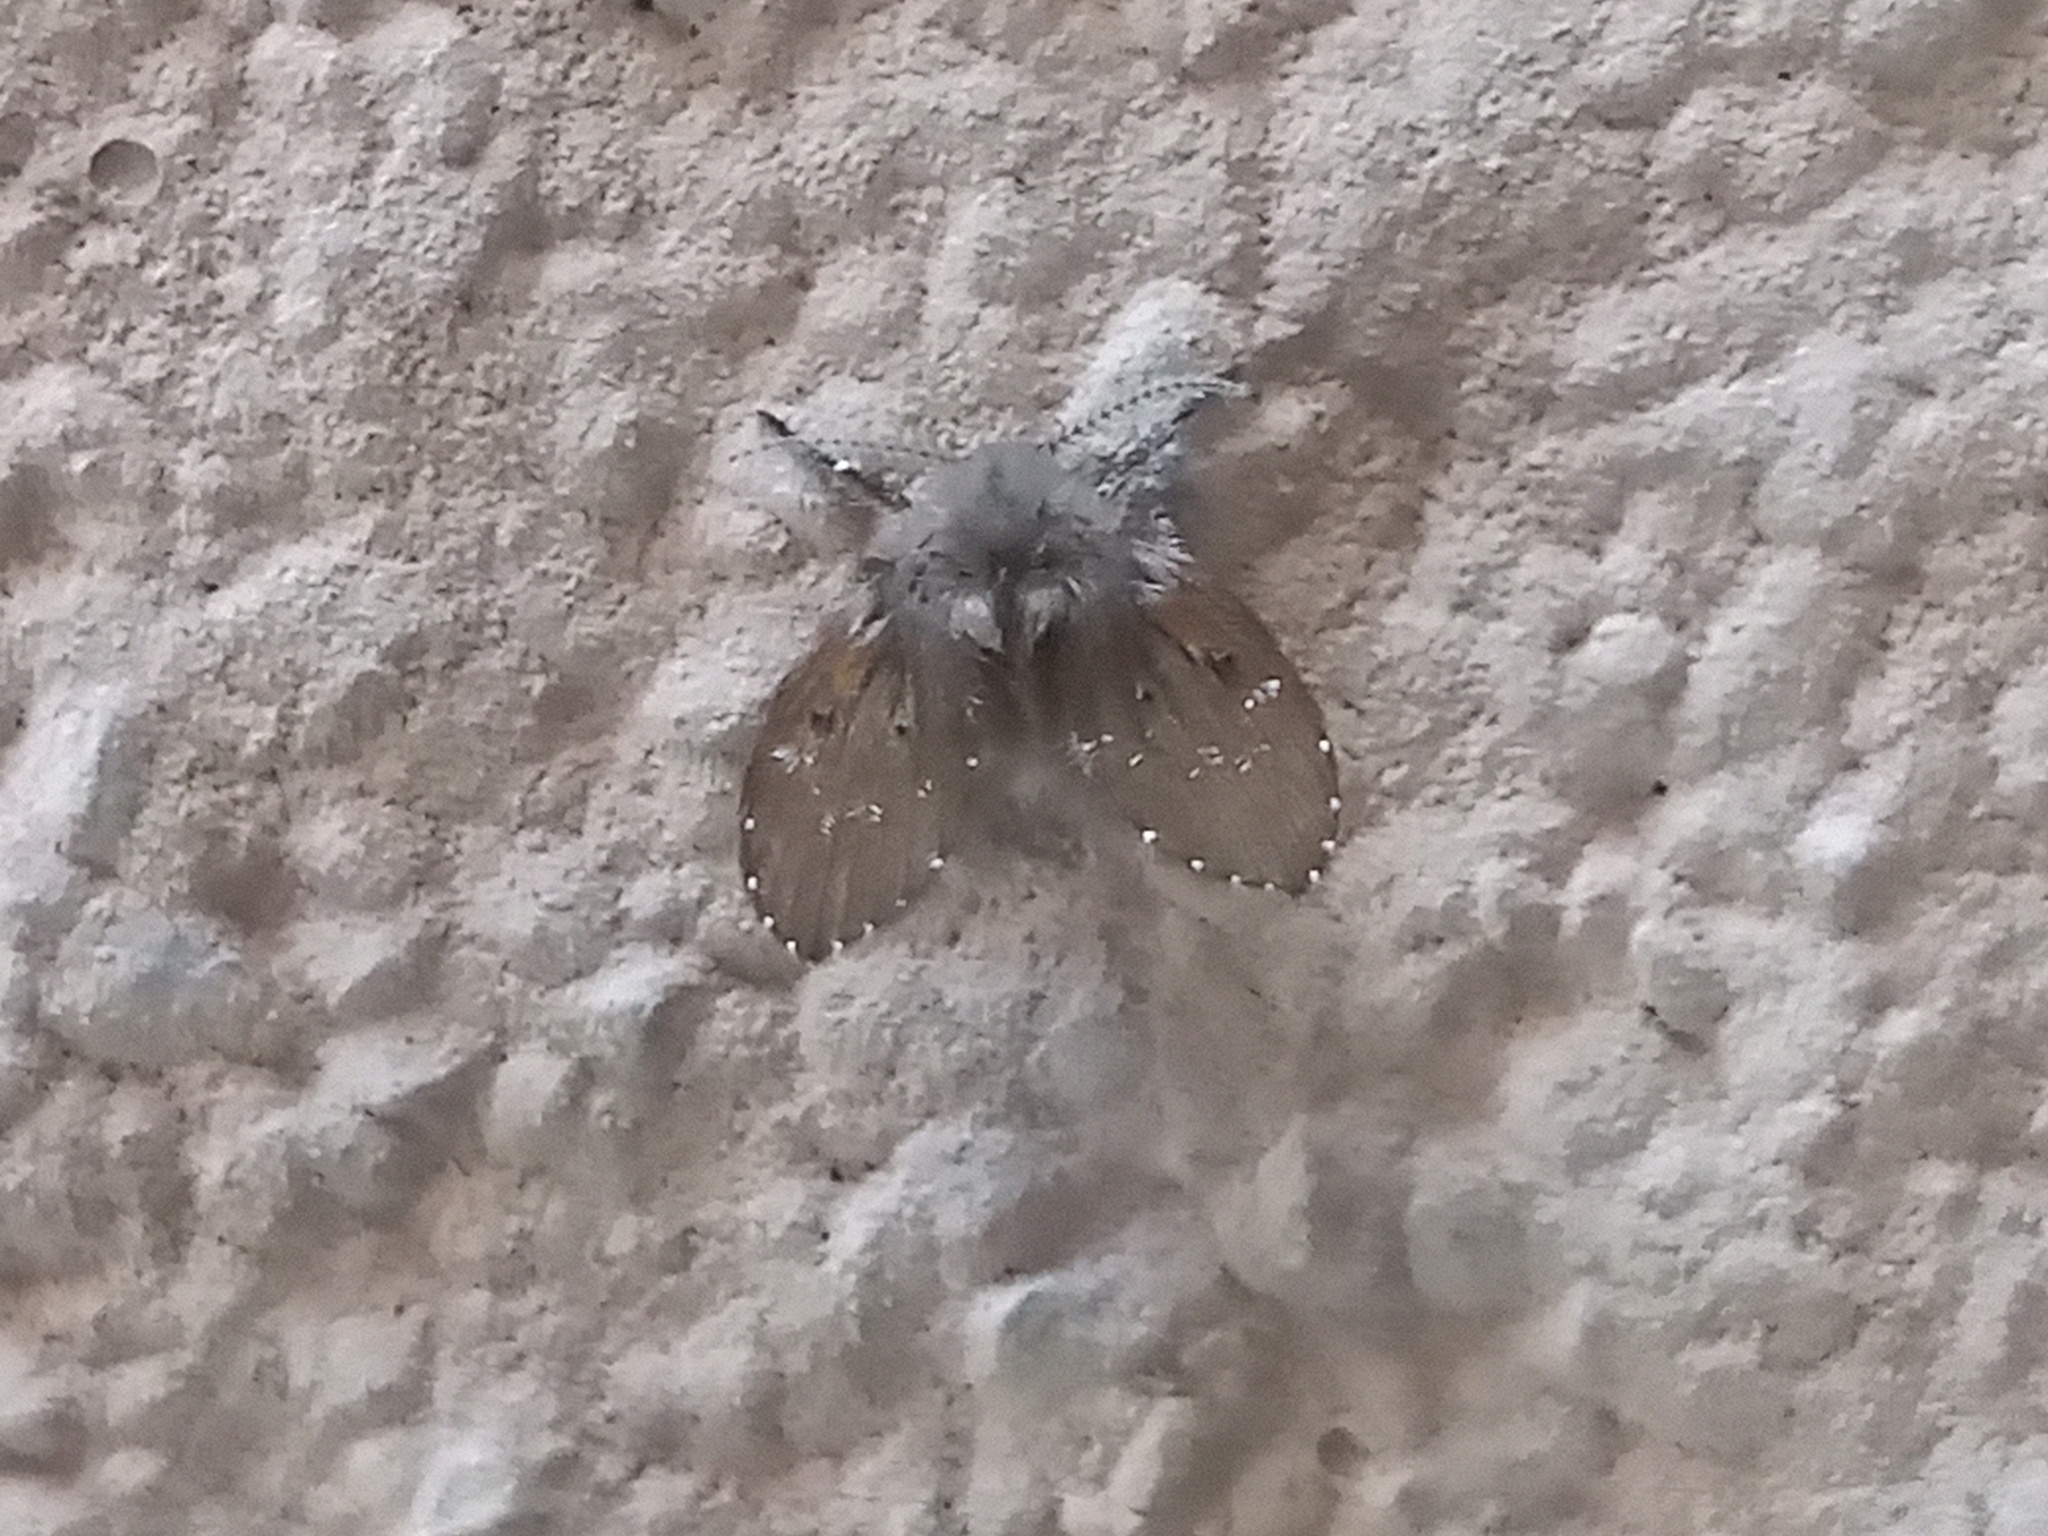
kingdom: Animalia
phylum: Arthropoda
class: Insecta
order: Diptera
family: Psychodidae
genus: Clogmia
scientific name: Clogmia albipunctatus
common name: White-spotted moth fly
